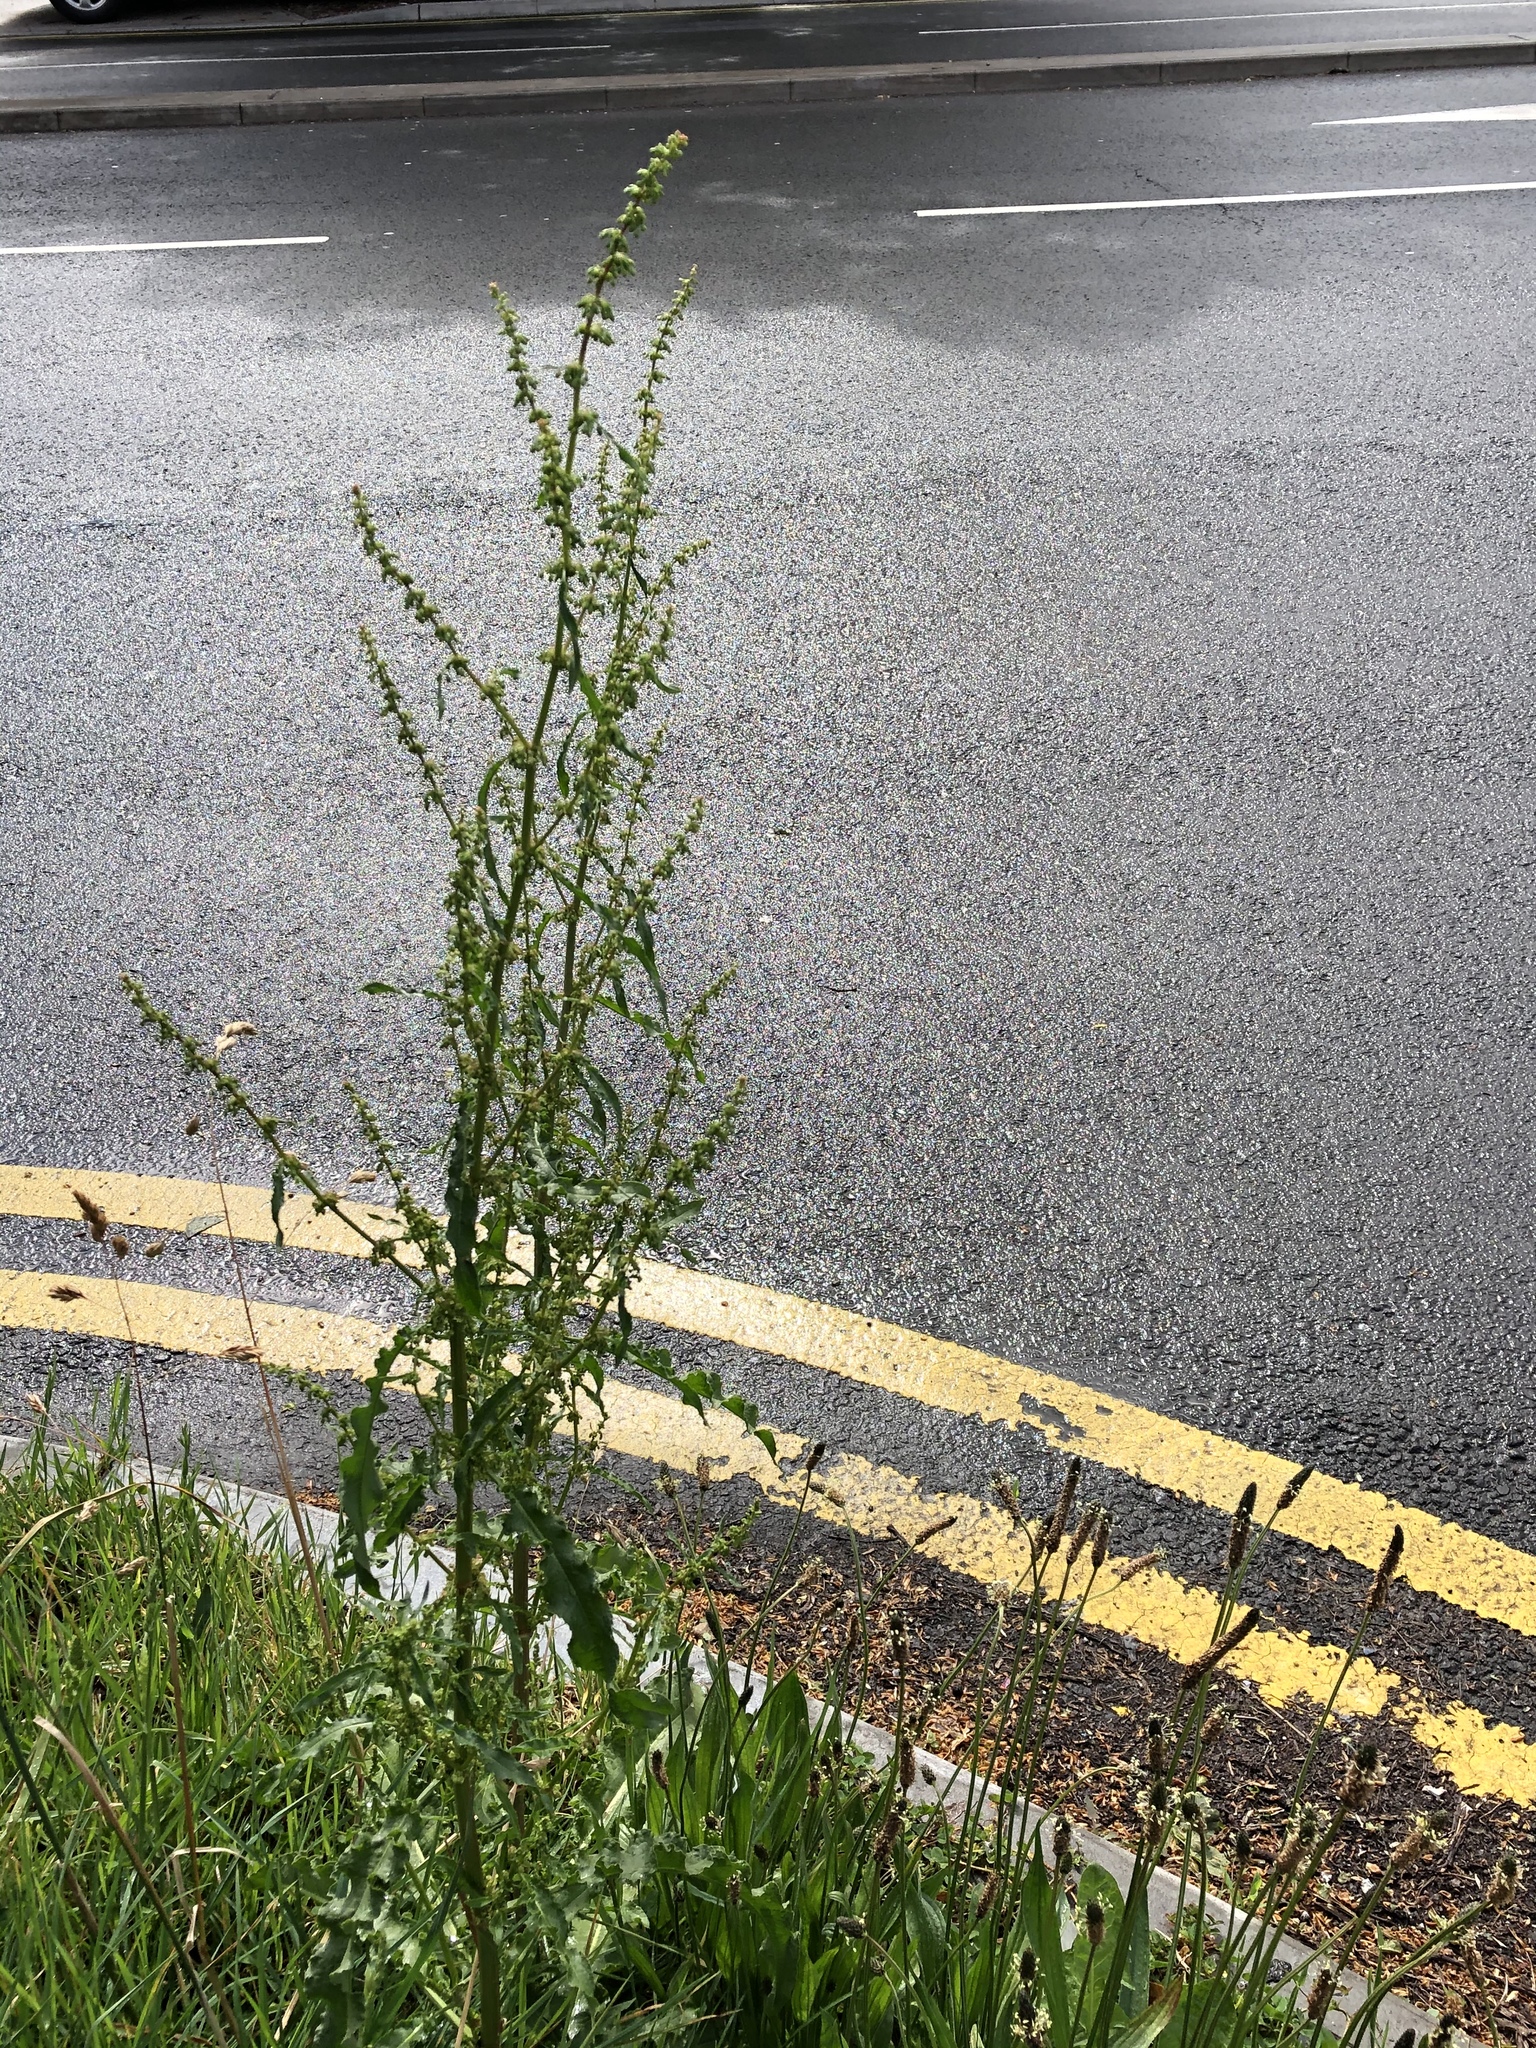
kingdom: Plantae
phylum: Tracheophyta
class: Magnoliopsida
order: Caryophyllales
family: Polygonaceae
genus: Rumex
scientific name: Rumex crispus
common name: Curled dock
